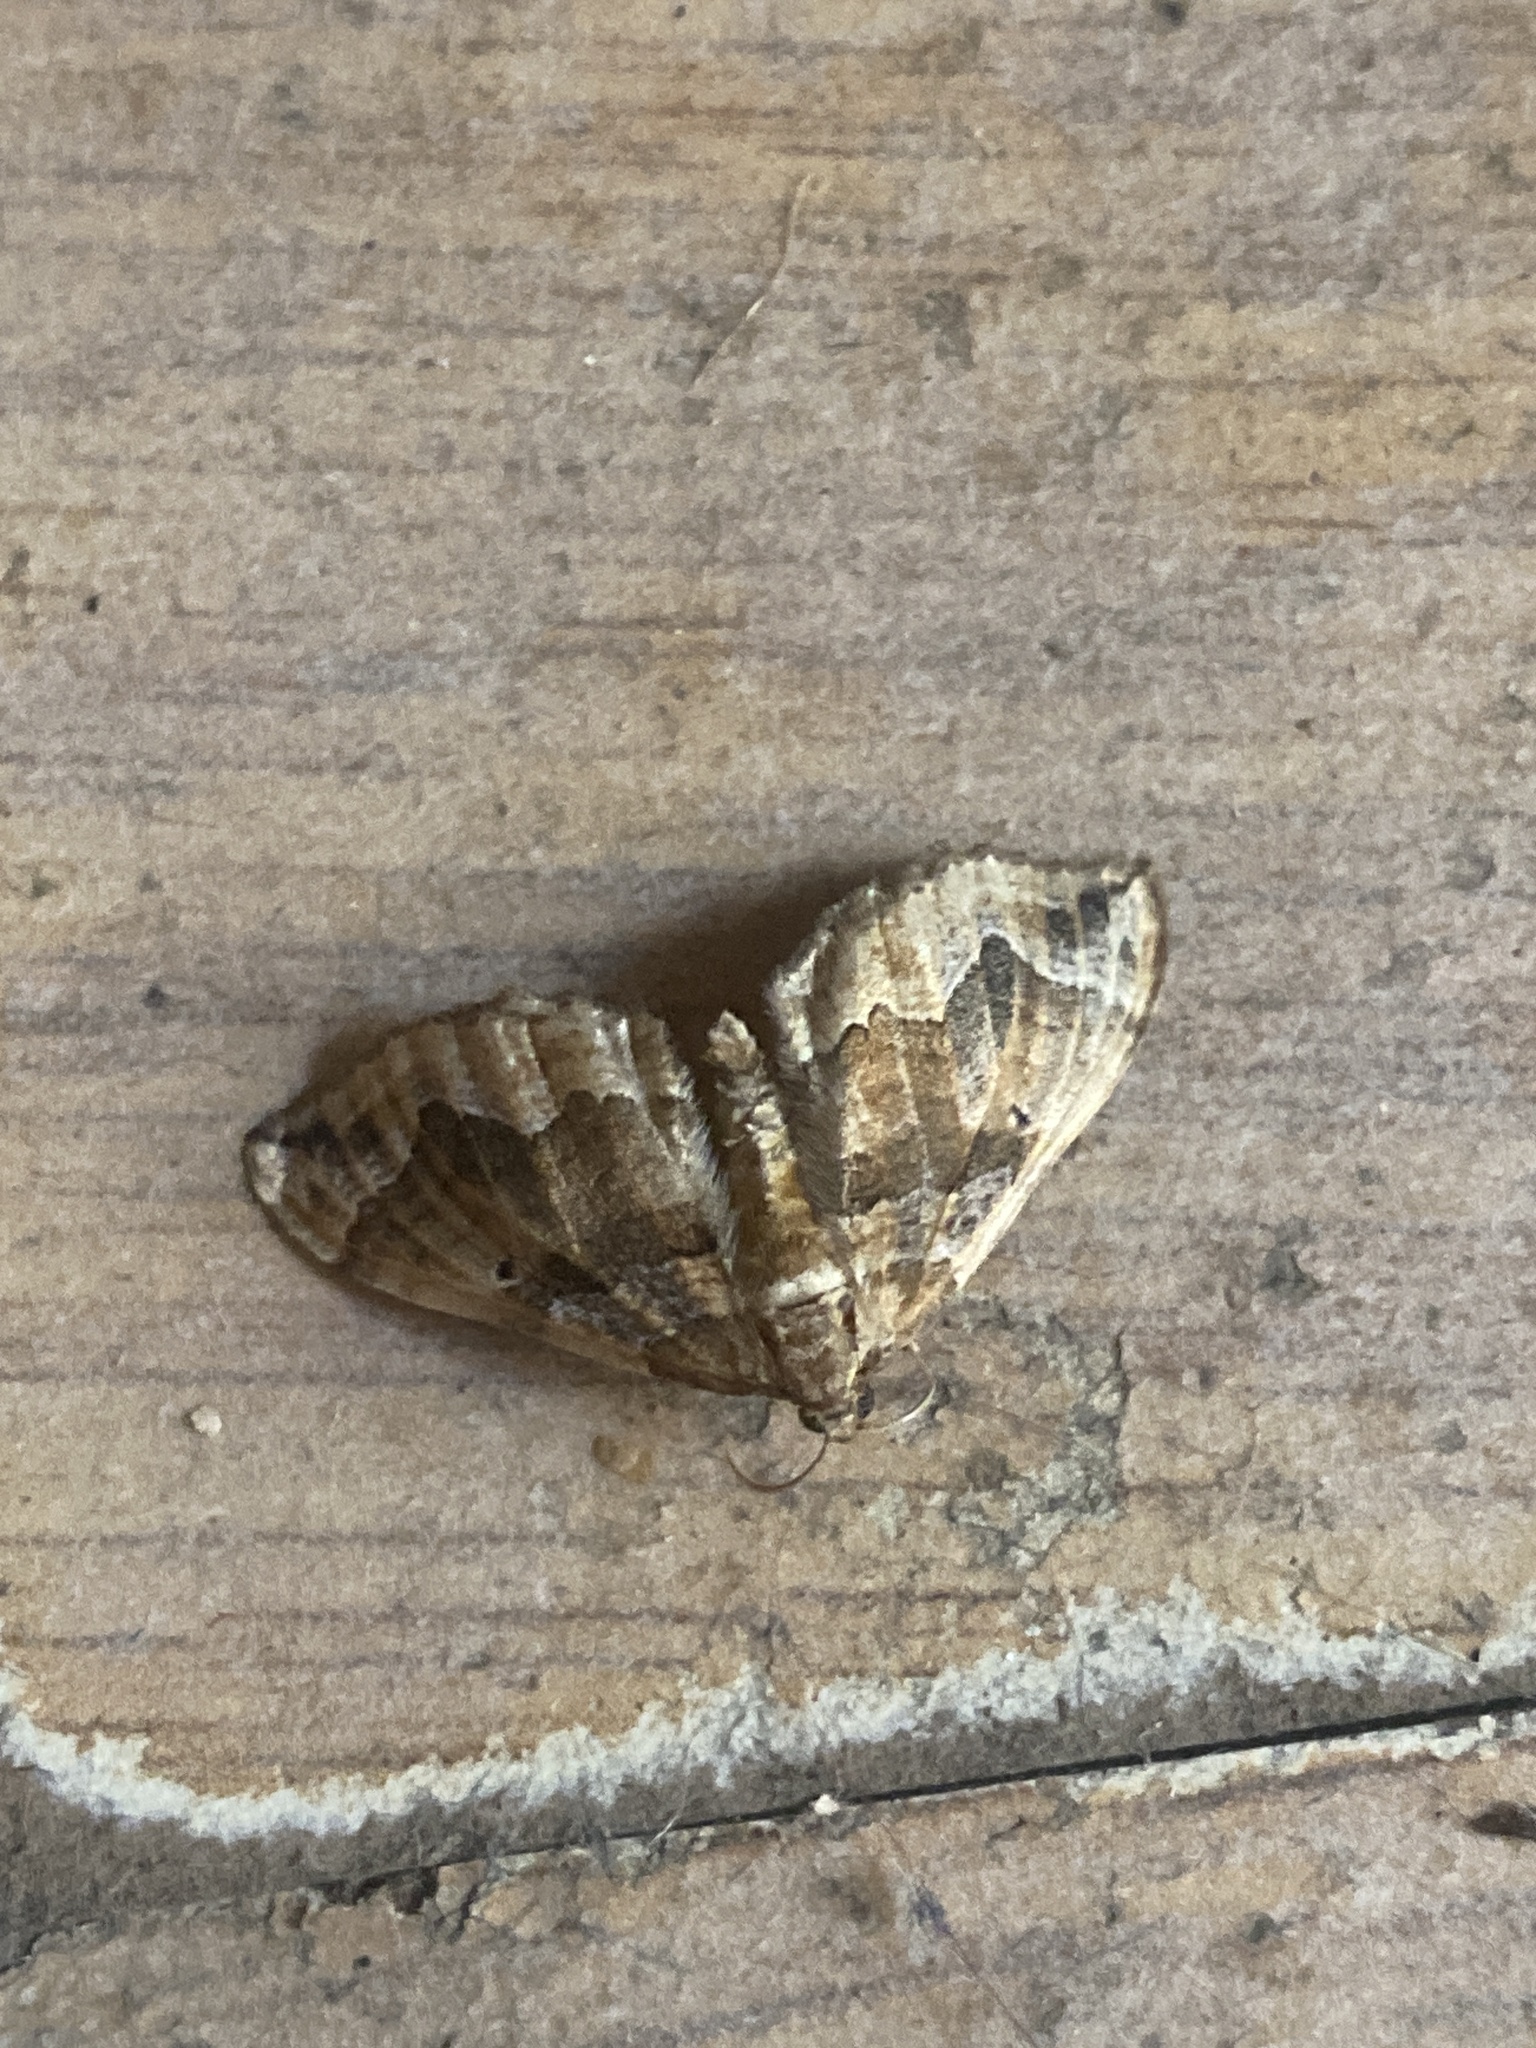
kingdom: Animalia
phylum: Arthropoda
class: Insecta
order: Lepidoptera
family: Geometridae
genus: Pelurga
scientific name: Pelurga comitata
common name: Dark spinach
